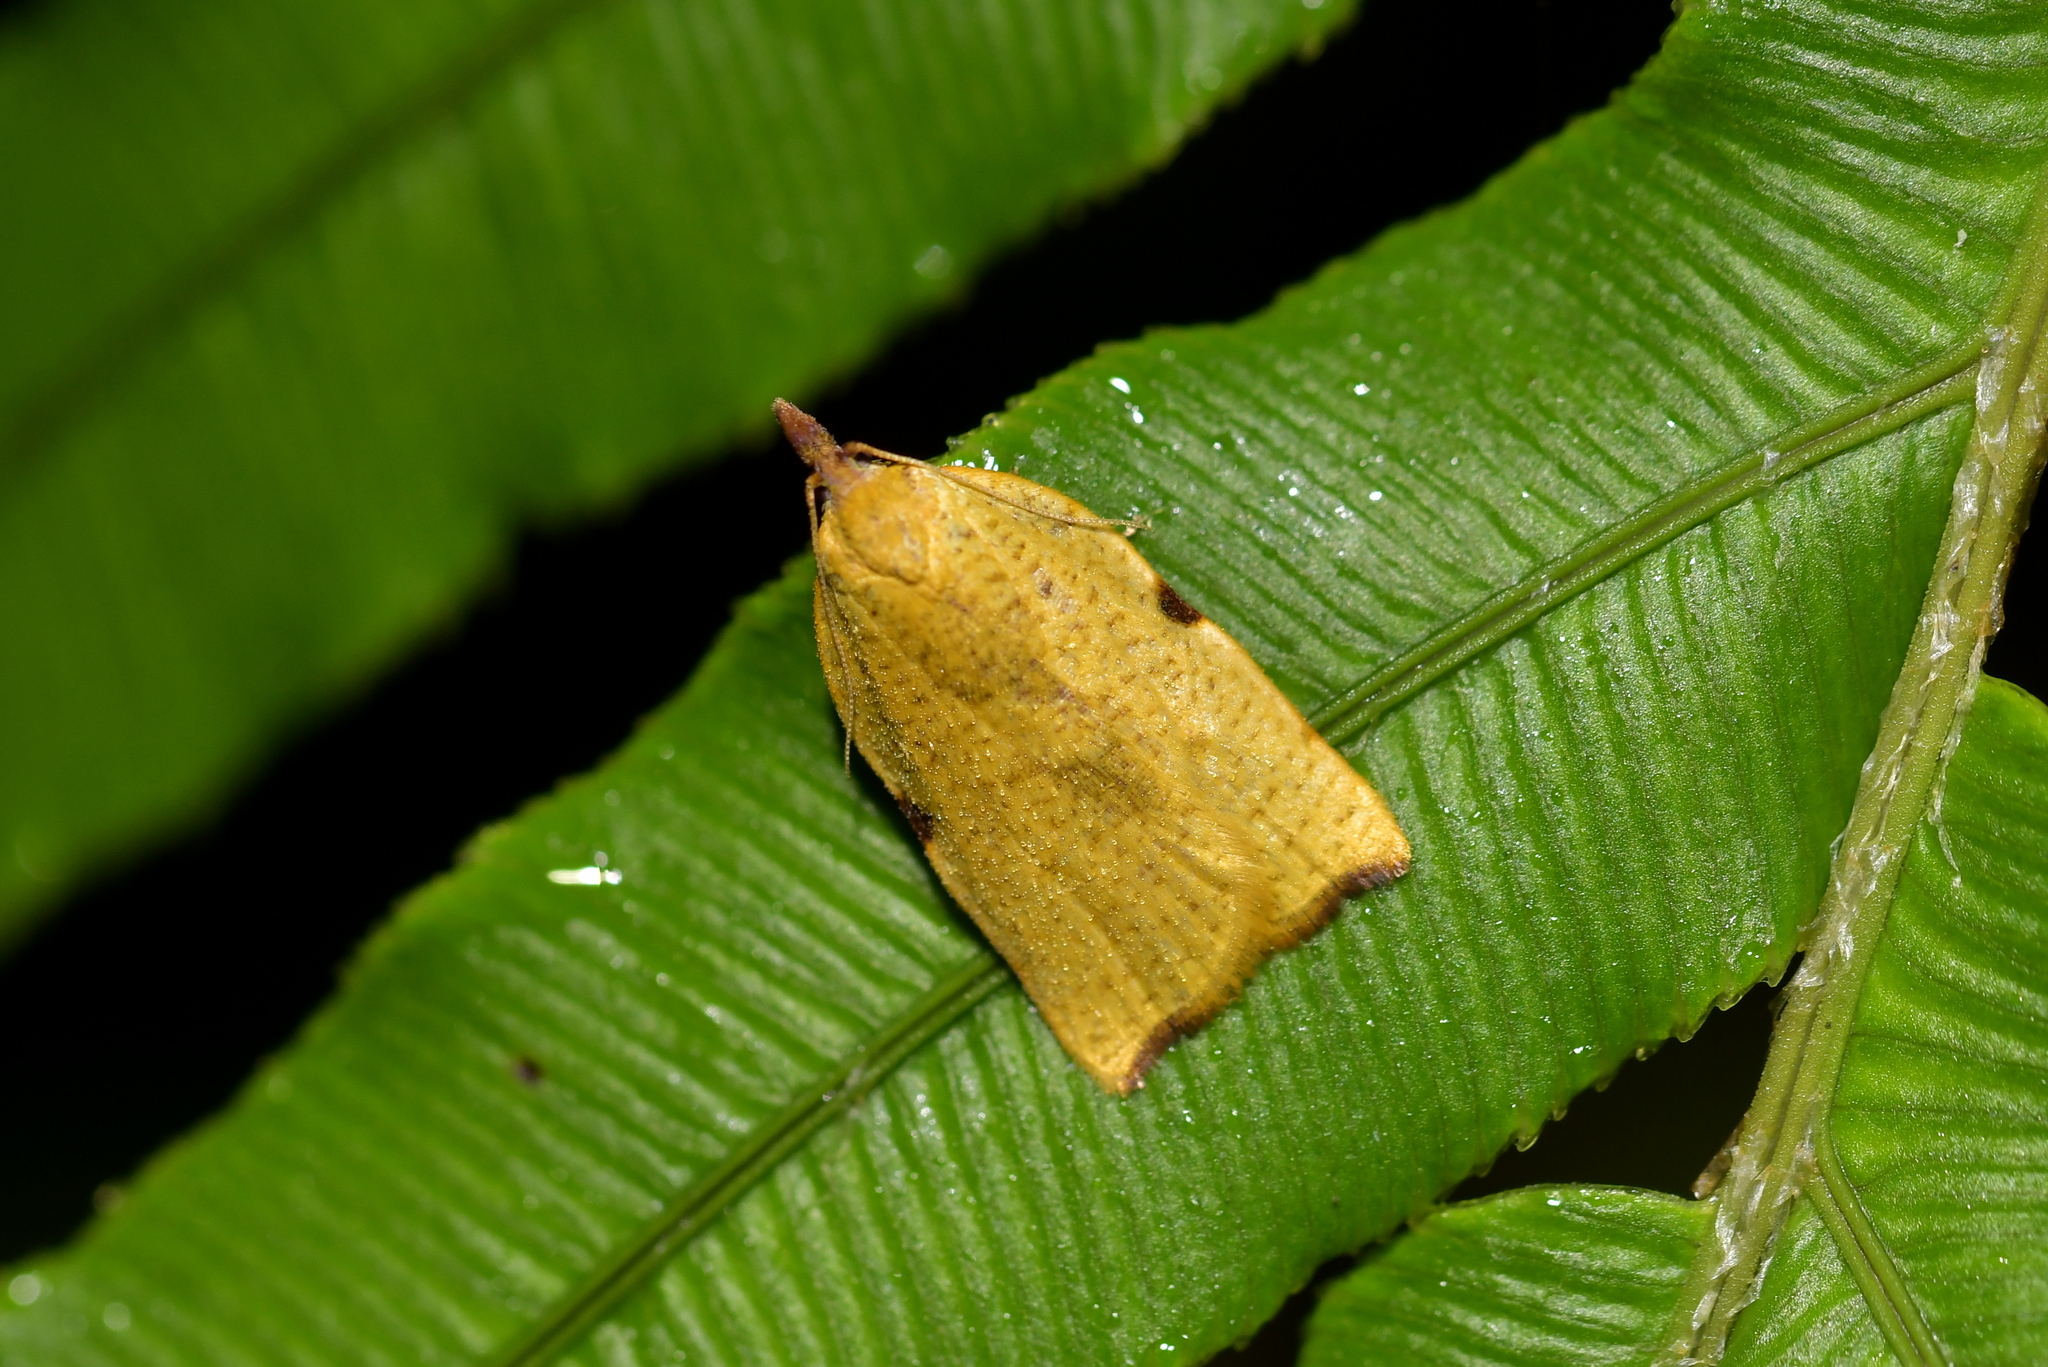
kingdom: Animalia
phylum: Arthropoda
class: Insecta
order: Lepidoptera
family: Tortricidae
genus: Apoctena
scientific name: Apoctena flavescens
